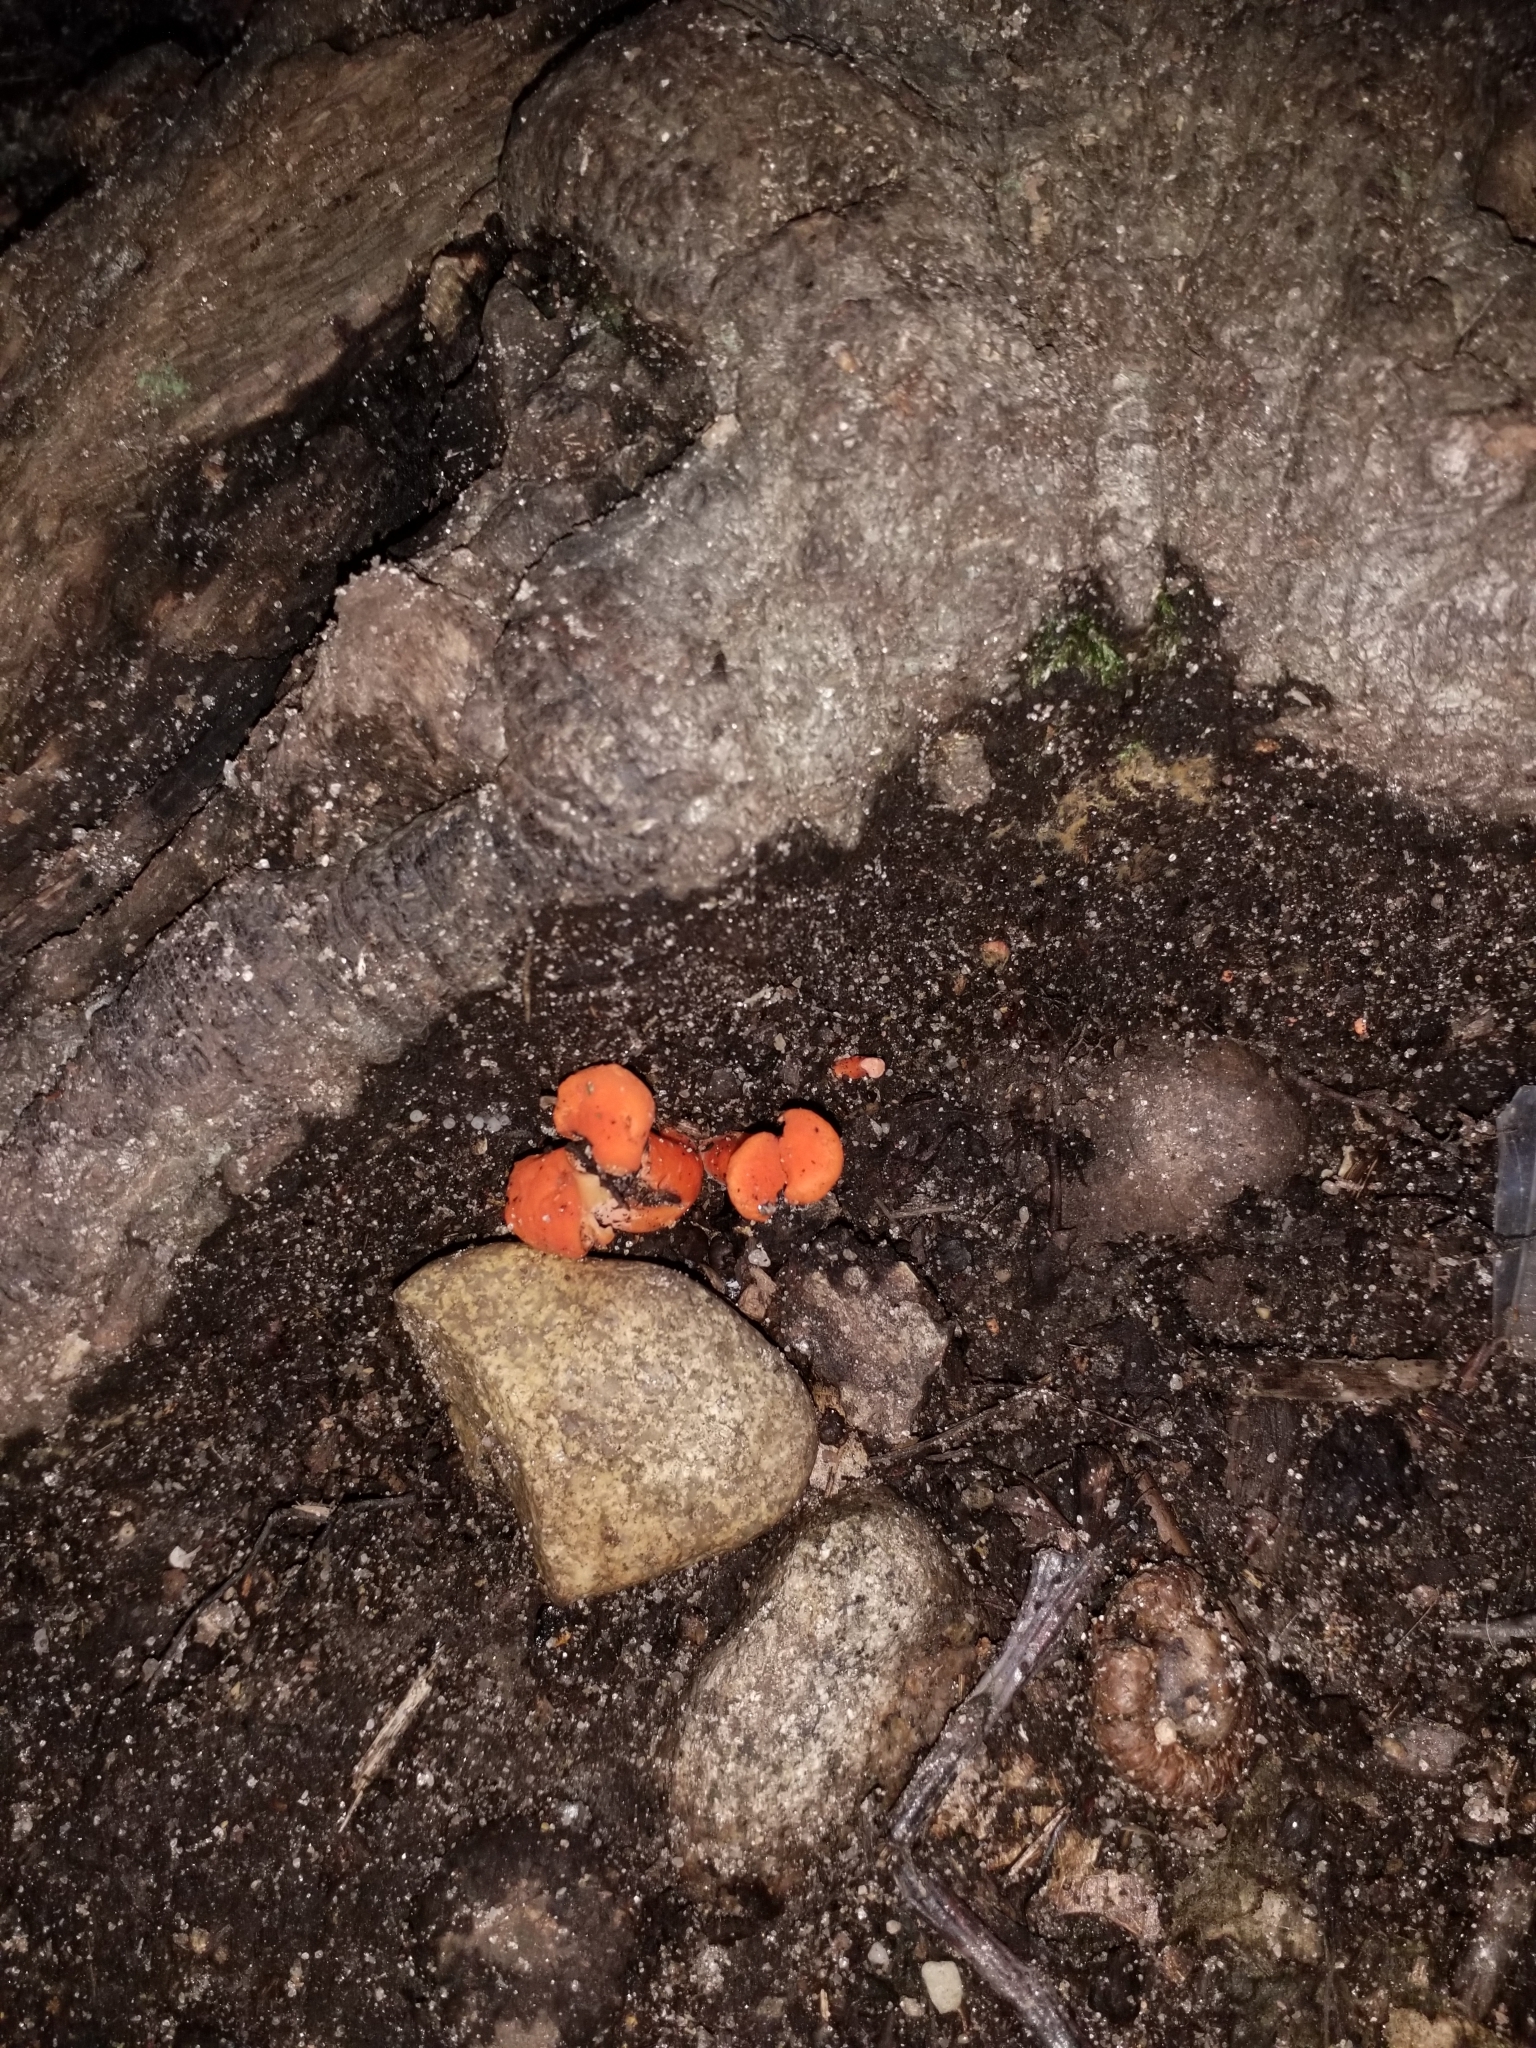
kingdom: Fungi
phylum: Basidiomycota
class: Agaricomycetes
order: Cantharellales
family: Hydnaceae
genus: Cantharellus
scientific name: Cantharellus cinnabarinus
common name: Cinnabar chanterelle
